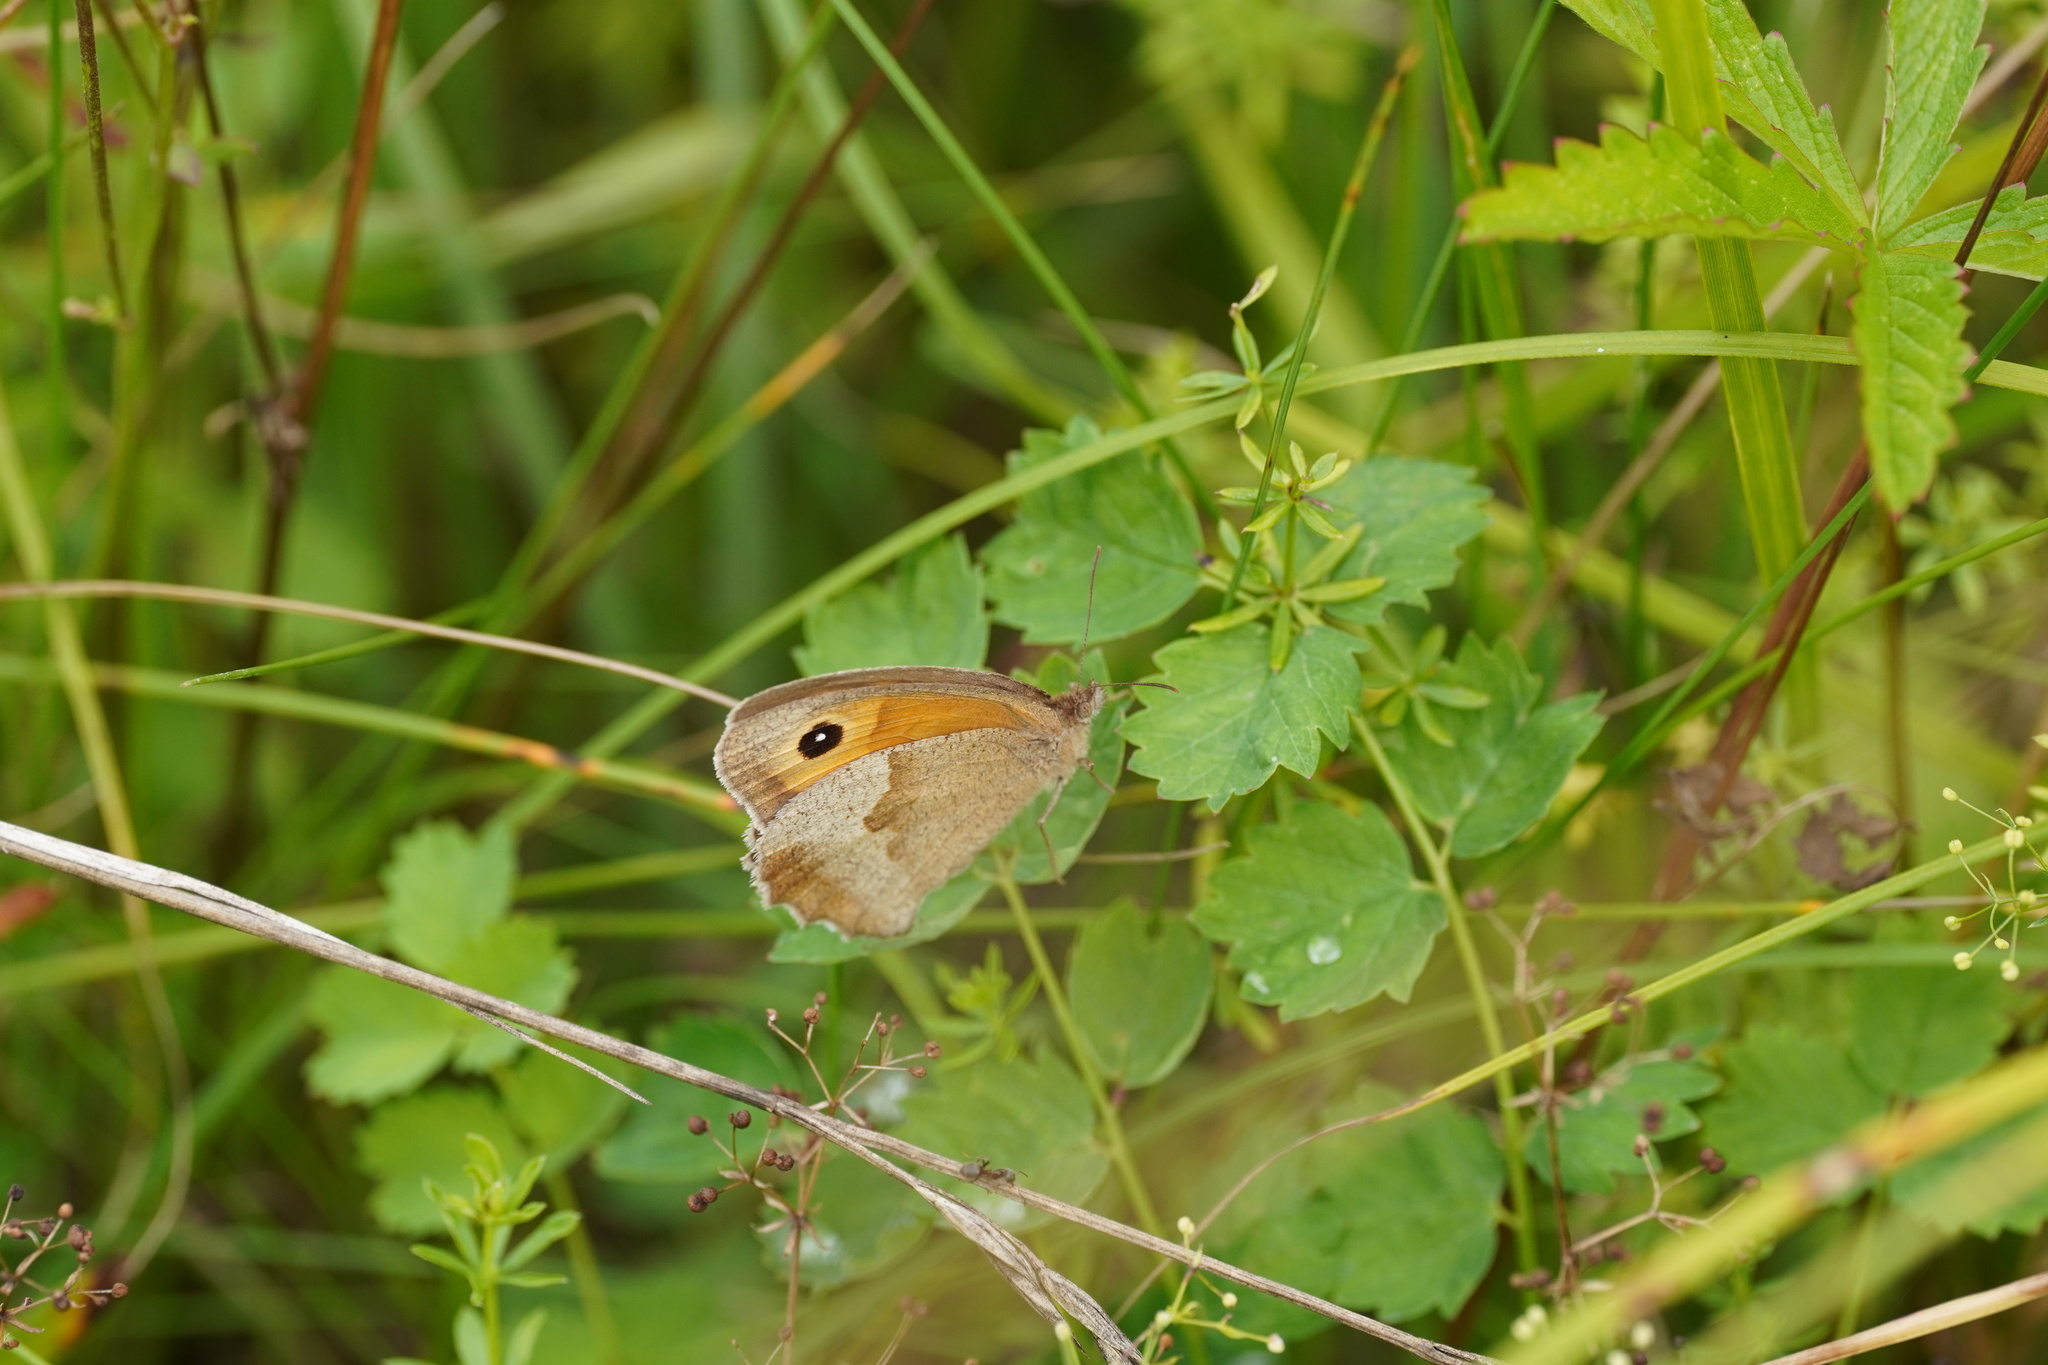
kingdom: Animalia
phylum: Arthropoda
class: Insecta
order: Lepidoptera
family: Nymphalidae
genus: Maniola
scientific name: Maniola jurtina
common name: Meadow brown
